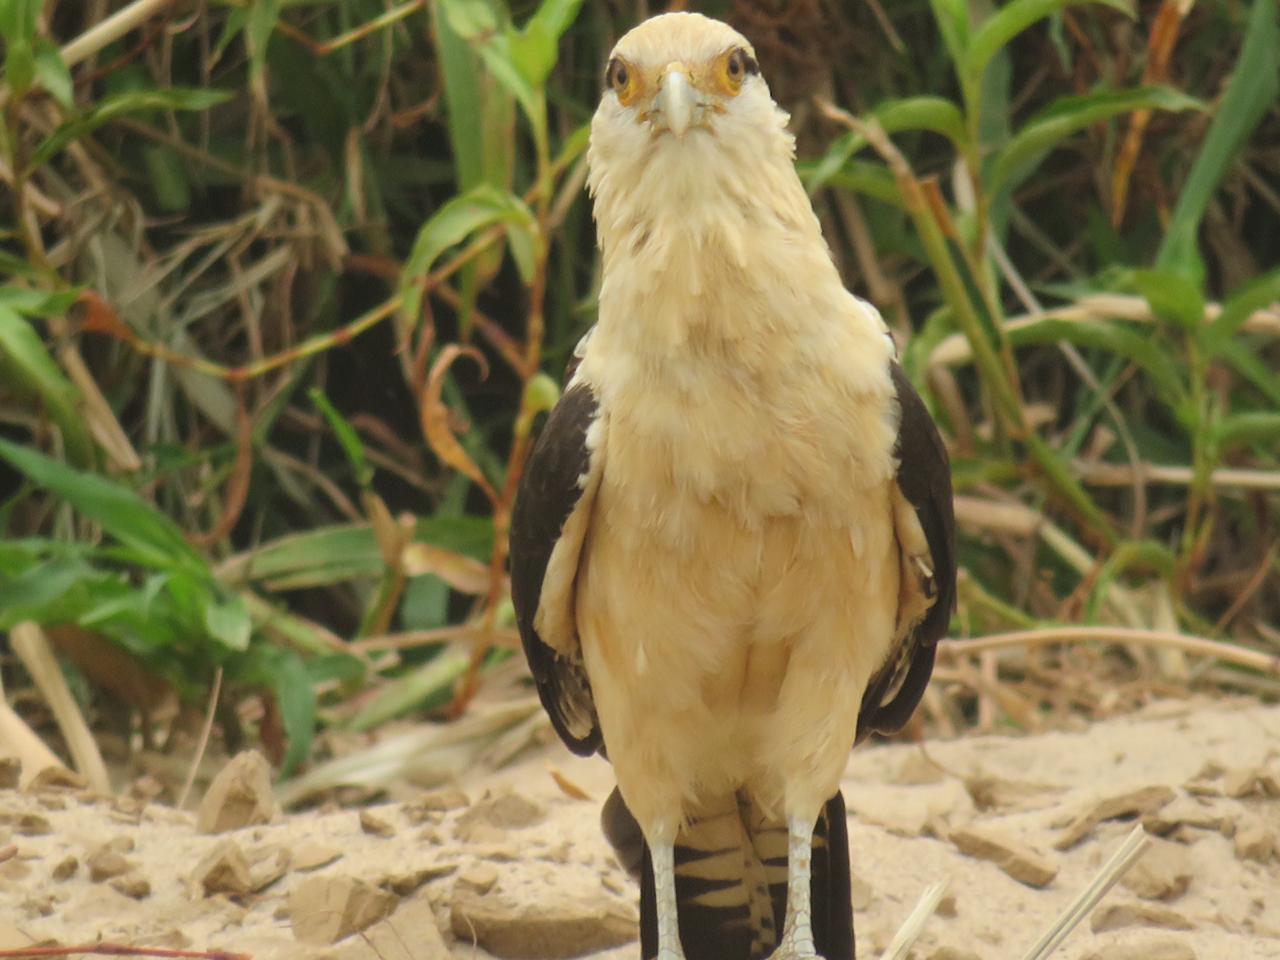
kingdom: Animalia
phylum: Chordata
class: Aves
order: Falconiformes
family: Falconidae
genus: Daptrius
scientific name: Daptrius
